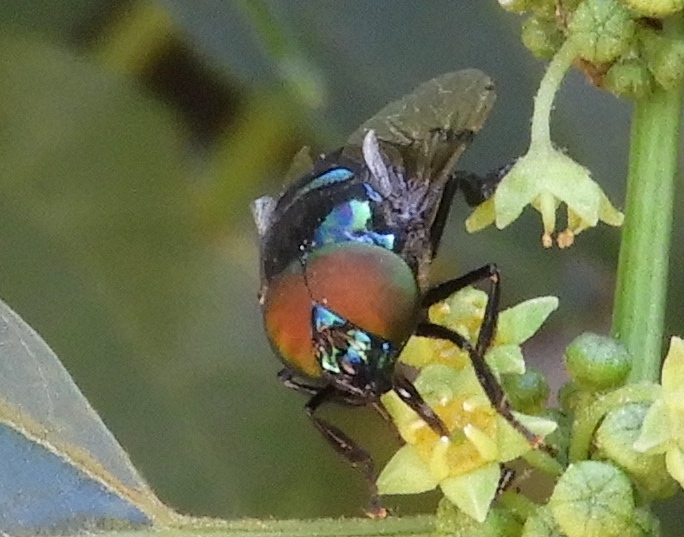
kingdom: Animalia
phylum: Arthropoda
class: Insecta
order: Diptera
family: Syrphidae
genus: Ornidia
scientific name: Ornidia obesa
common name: Syrphid fly
